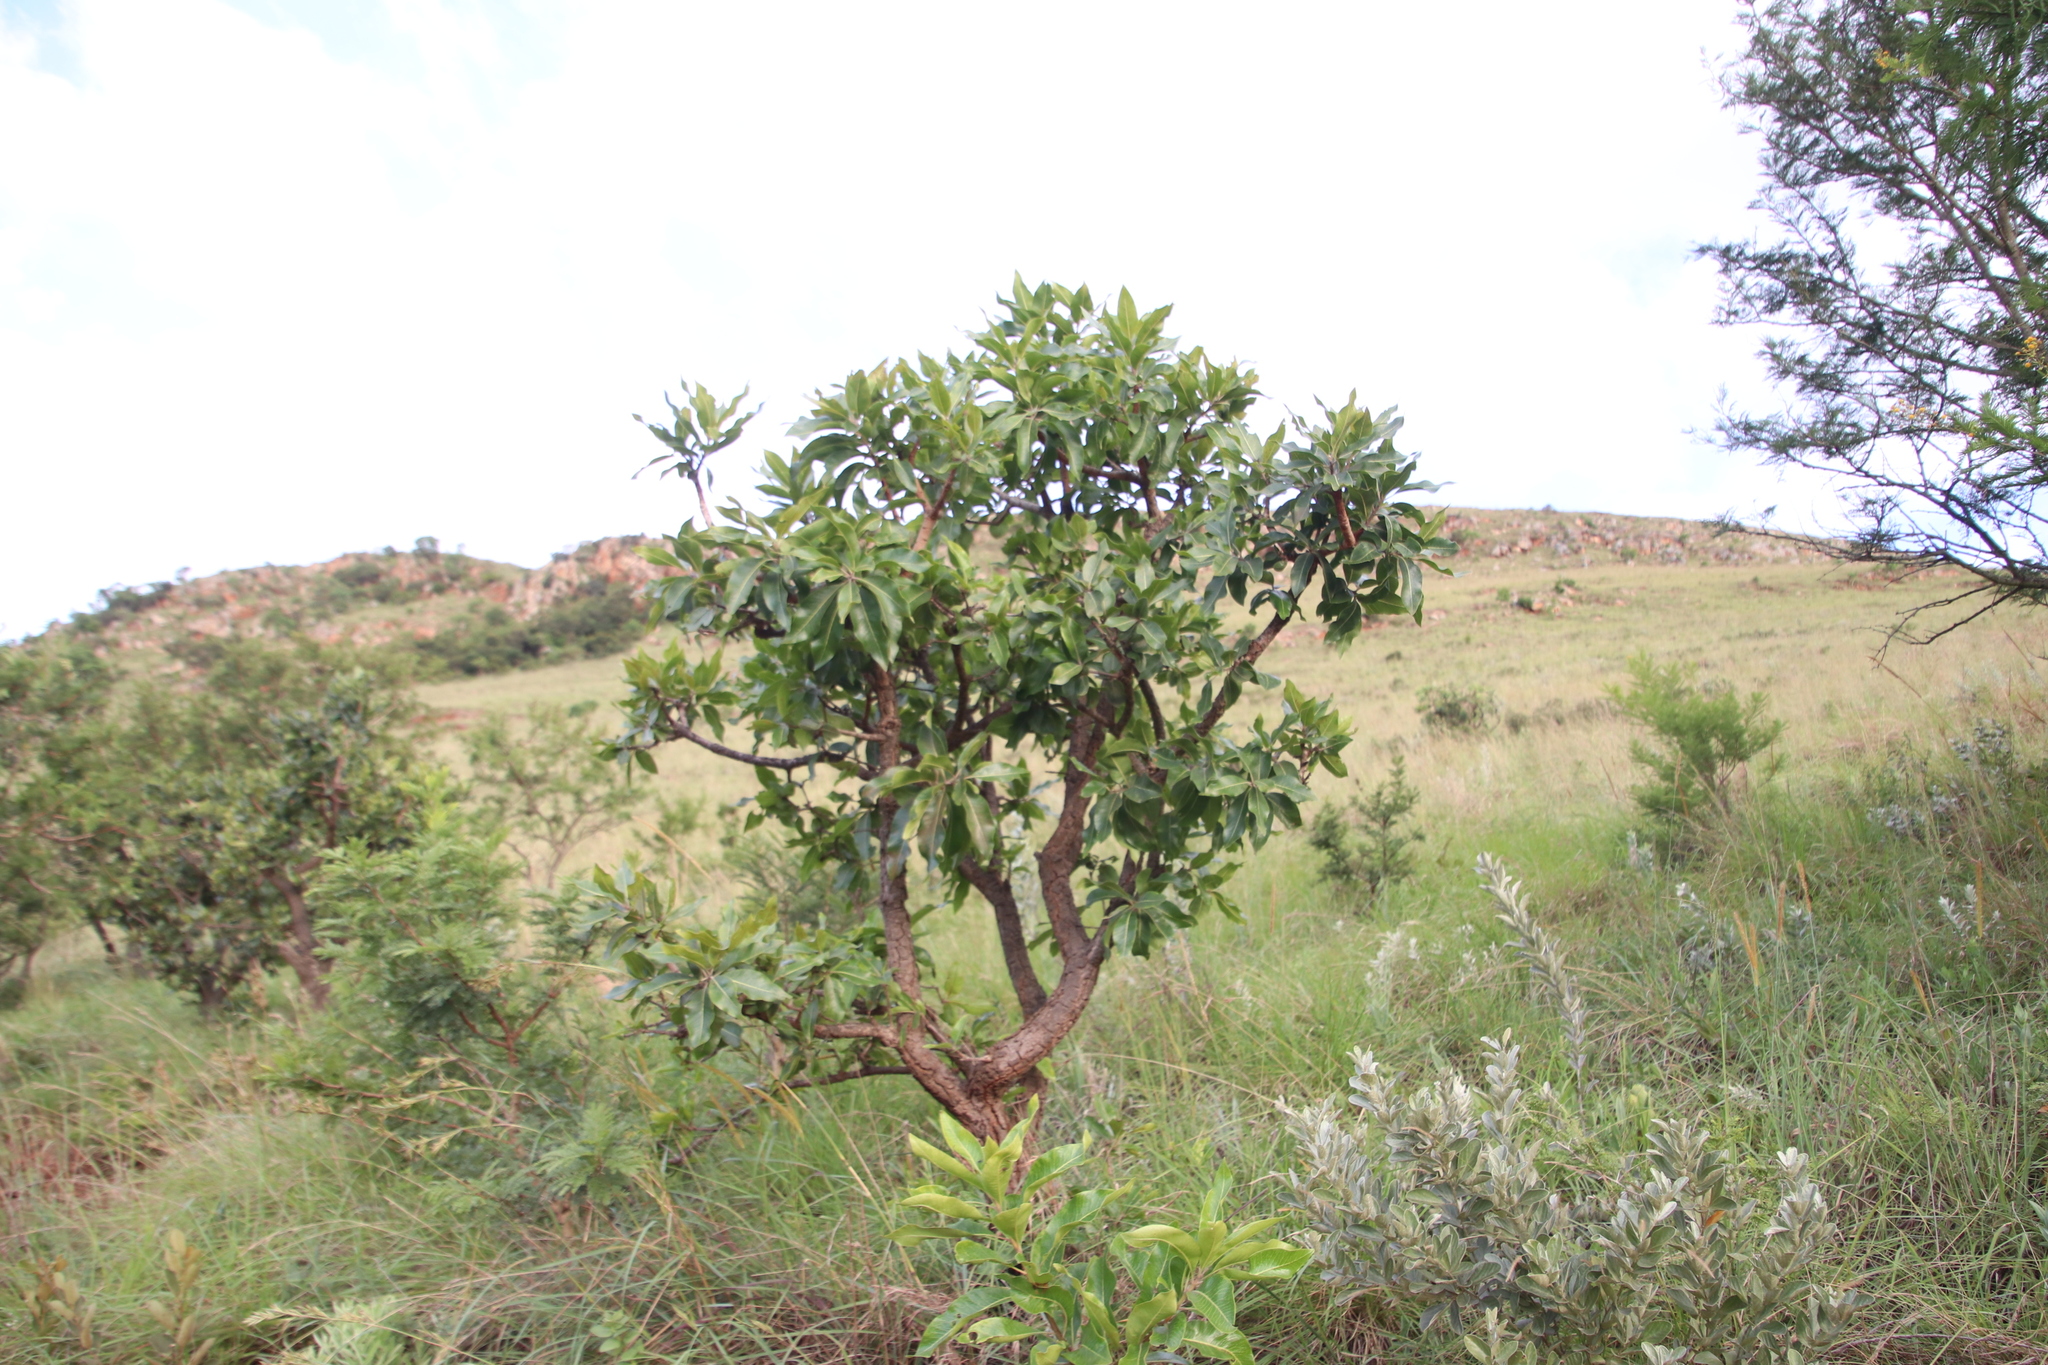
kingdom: Plantae
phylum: Tracheophyta
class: Magnoliopsida
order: Proteales
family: Proteaceae
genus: Faurea
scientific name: Faurea rochetiana
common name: Broad-leaved beech
